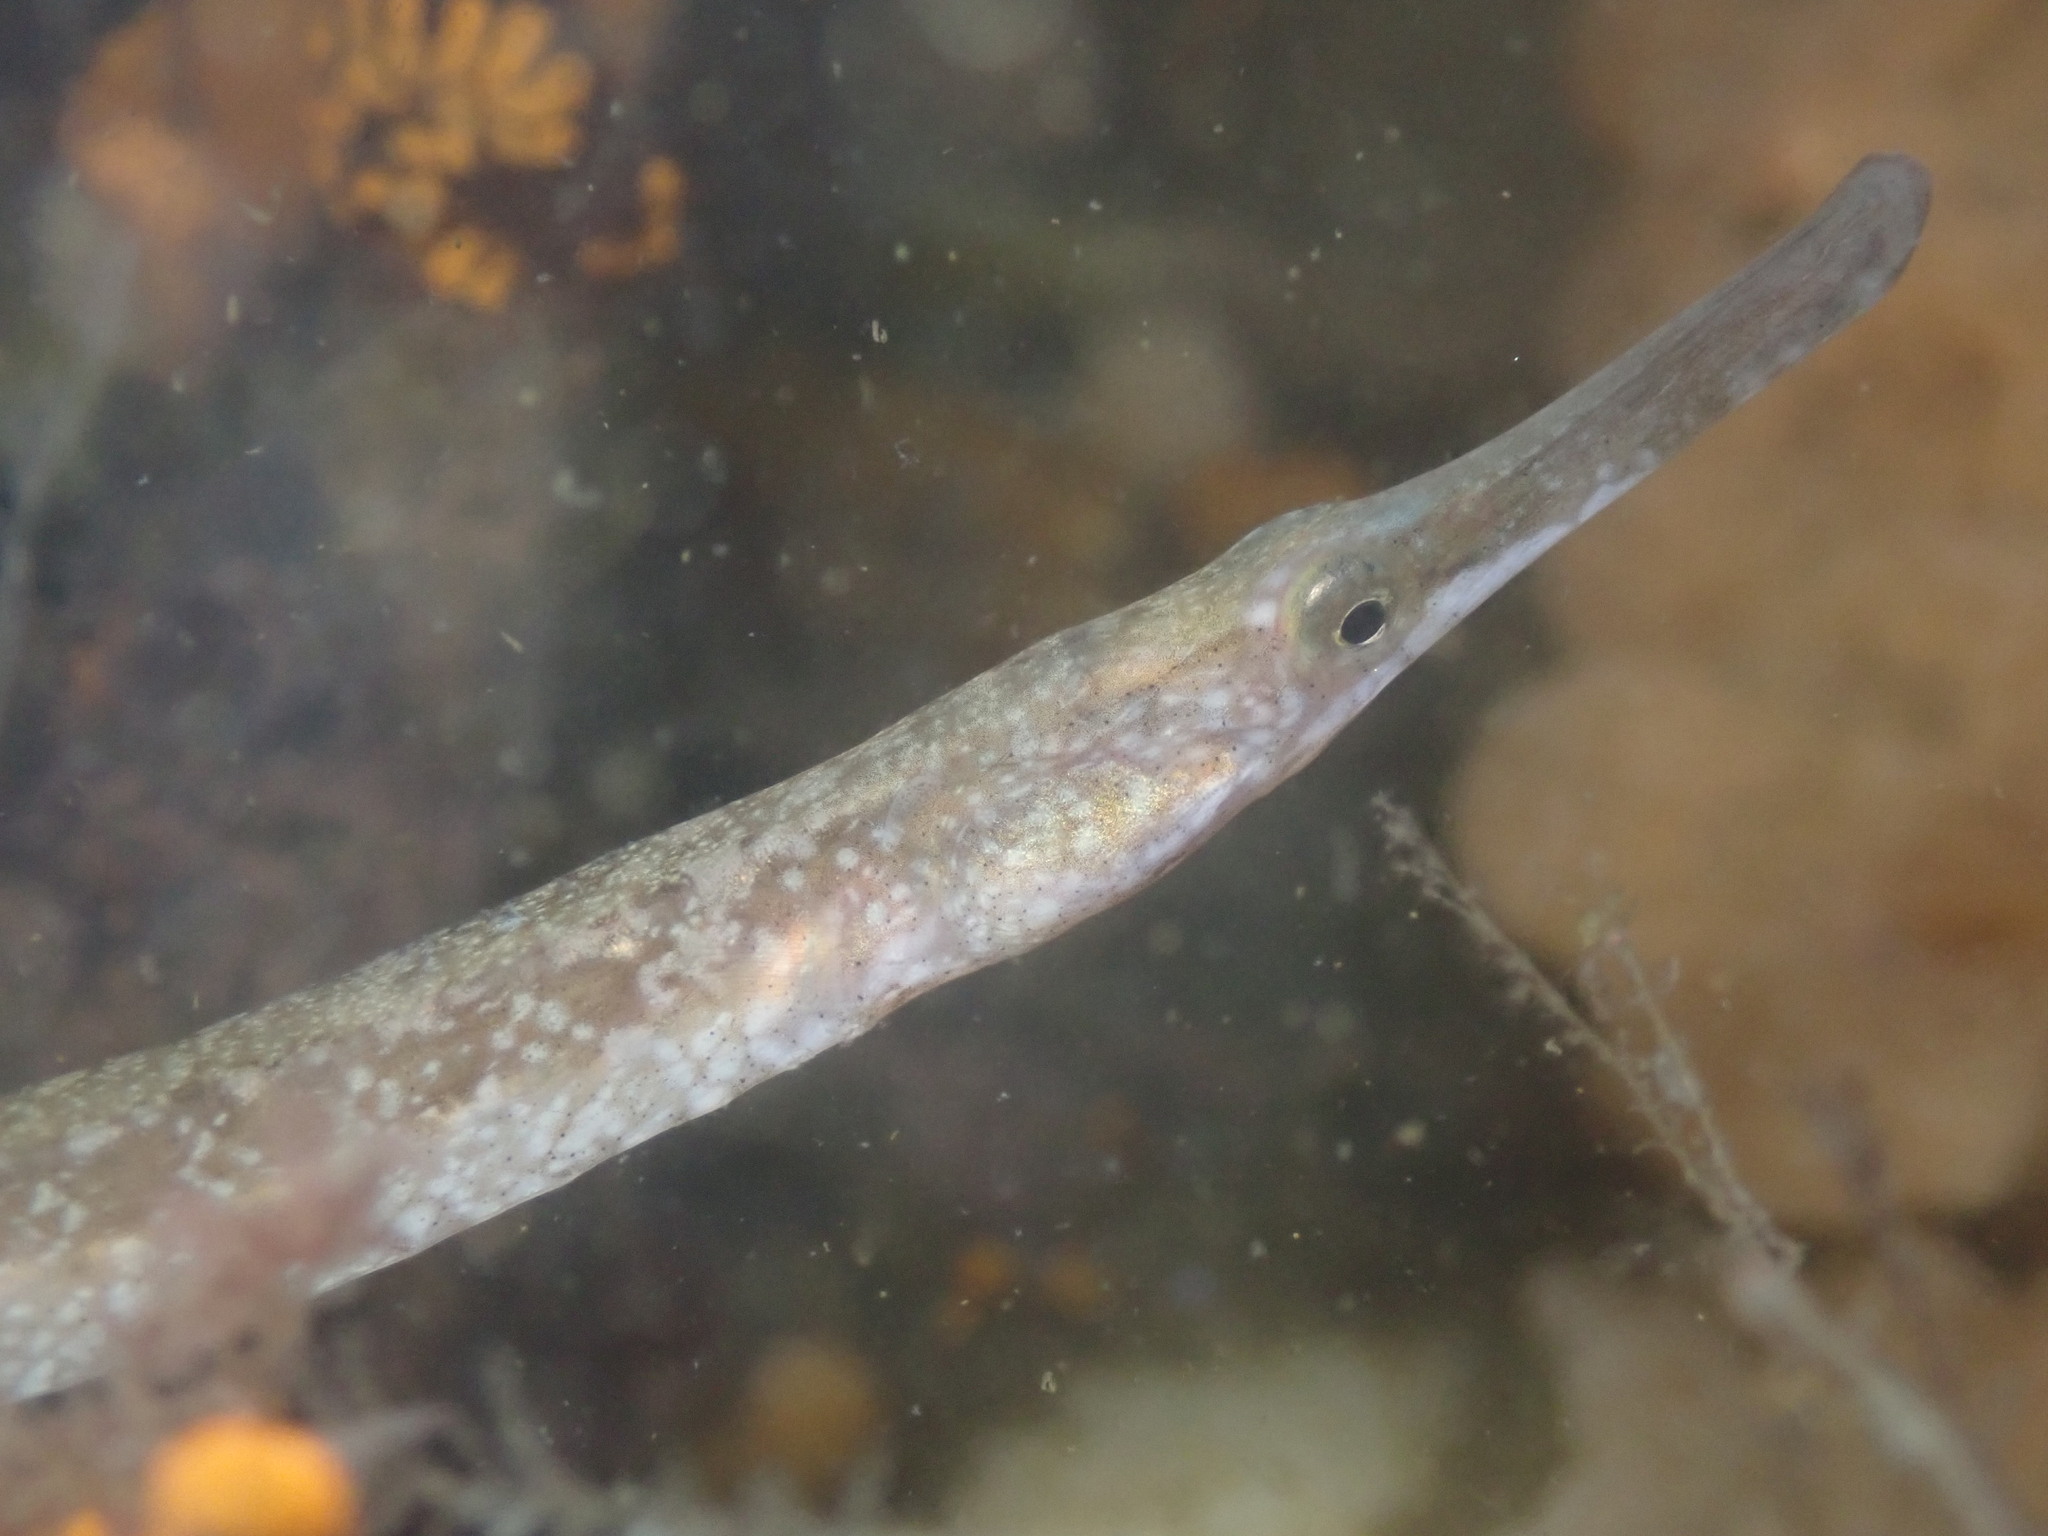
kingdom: Animalia
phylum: Chordata
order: Syngnathiformes
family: Syngnathidae
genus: Syngnathus
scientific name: Syngnathus californiensis
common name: Great pipefish
